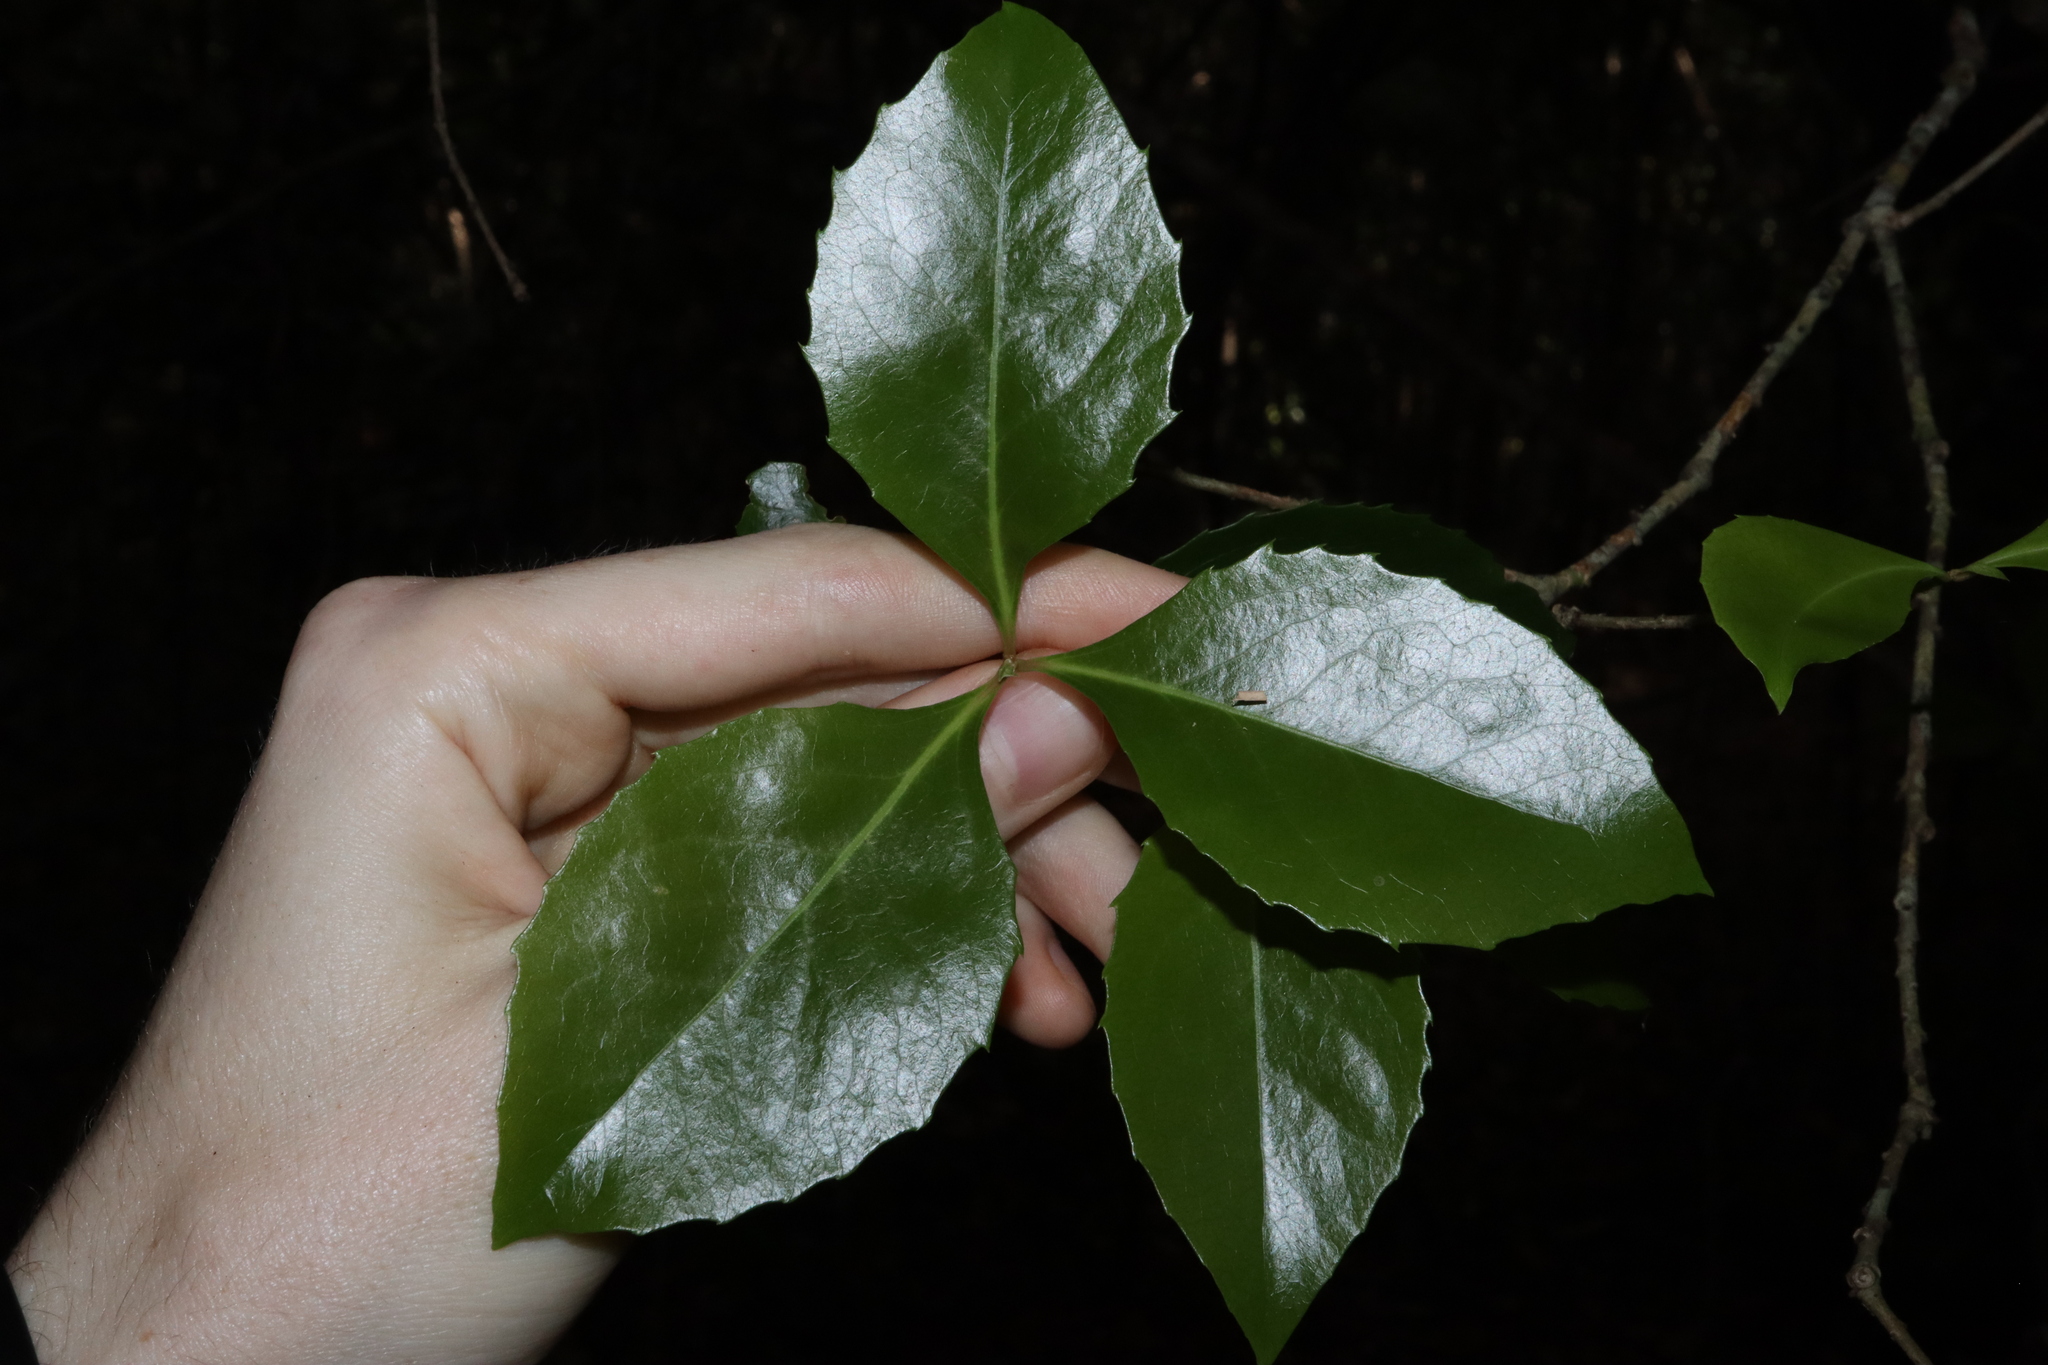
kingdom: Plantae
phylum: Tracheophyta
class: Magnoliopsida
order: Celastrales
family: Celastraceae
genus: Denhamia
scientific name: Denhamia fasciculiflora
